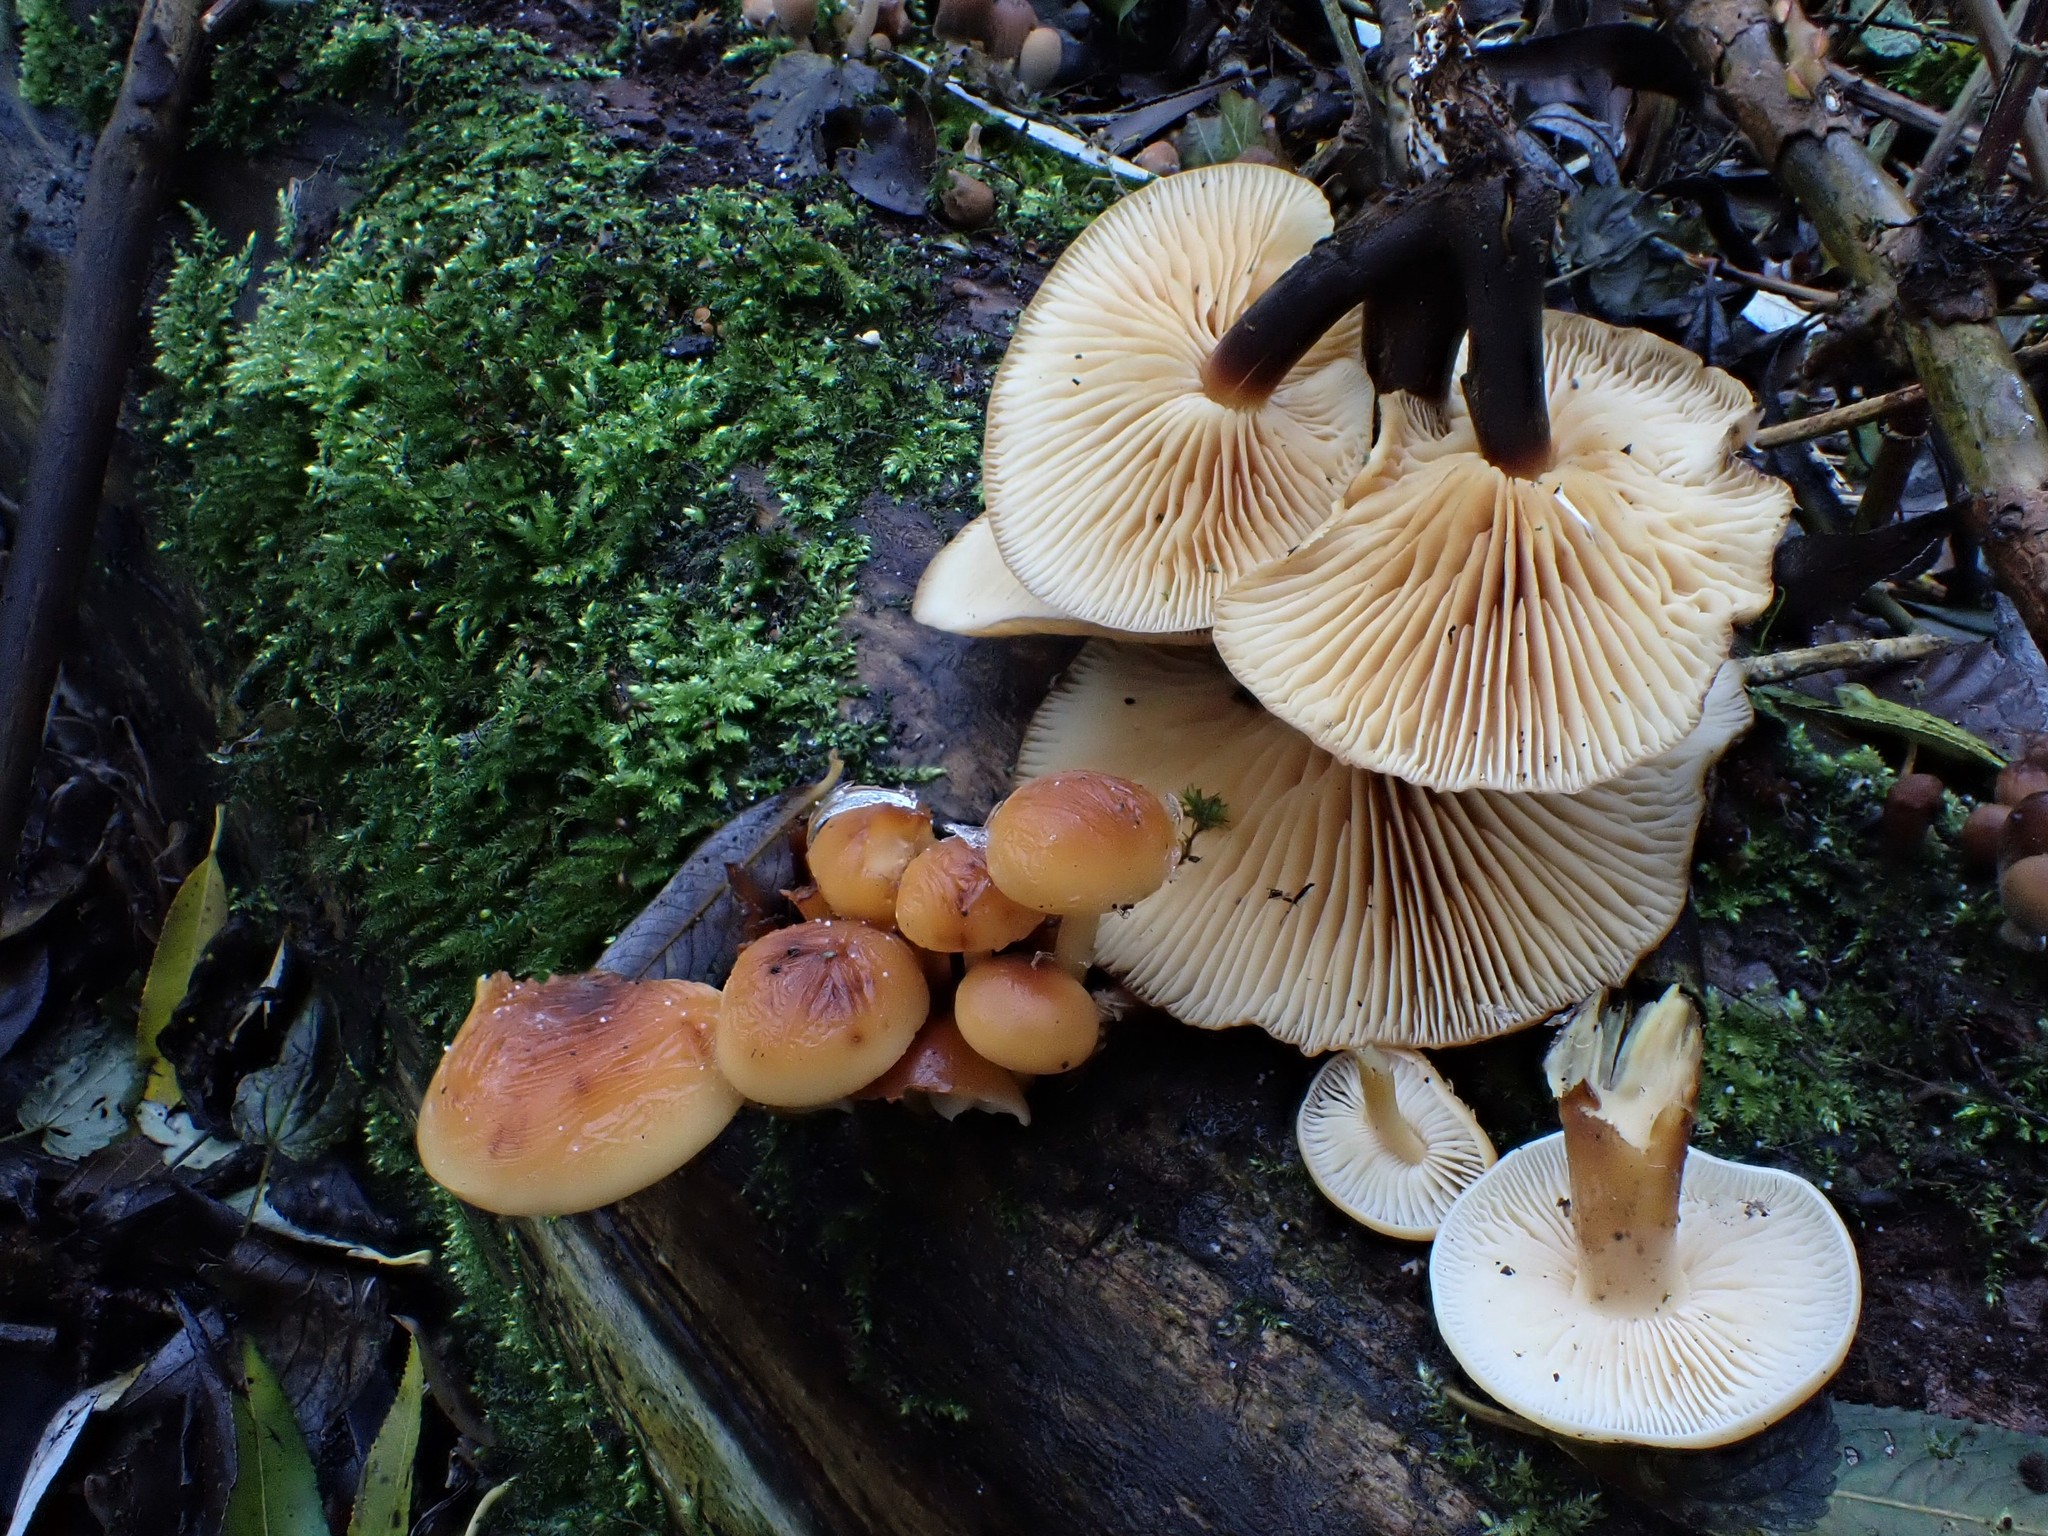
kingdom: Fungi
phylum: Basidiomycota
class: Agaricomycetes
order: Agaricales
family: Physalacriaceae
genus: Flammulina
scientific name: Flammulina
